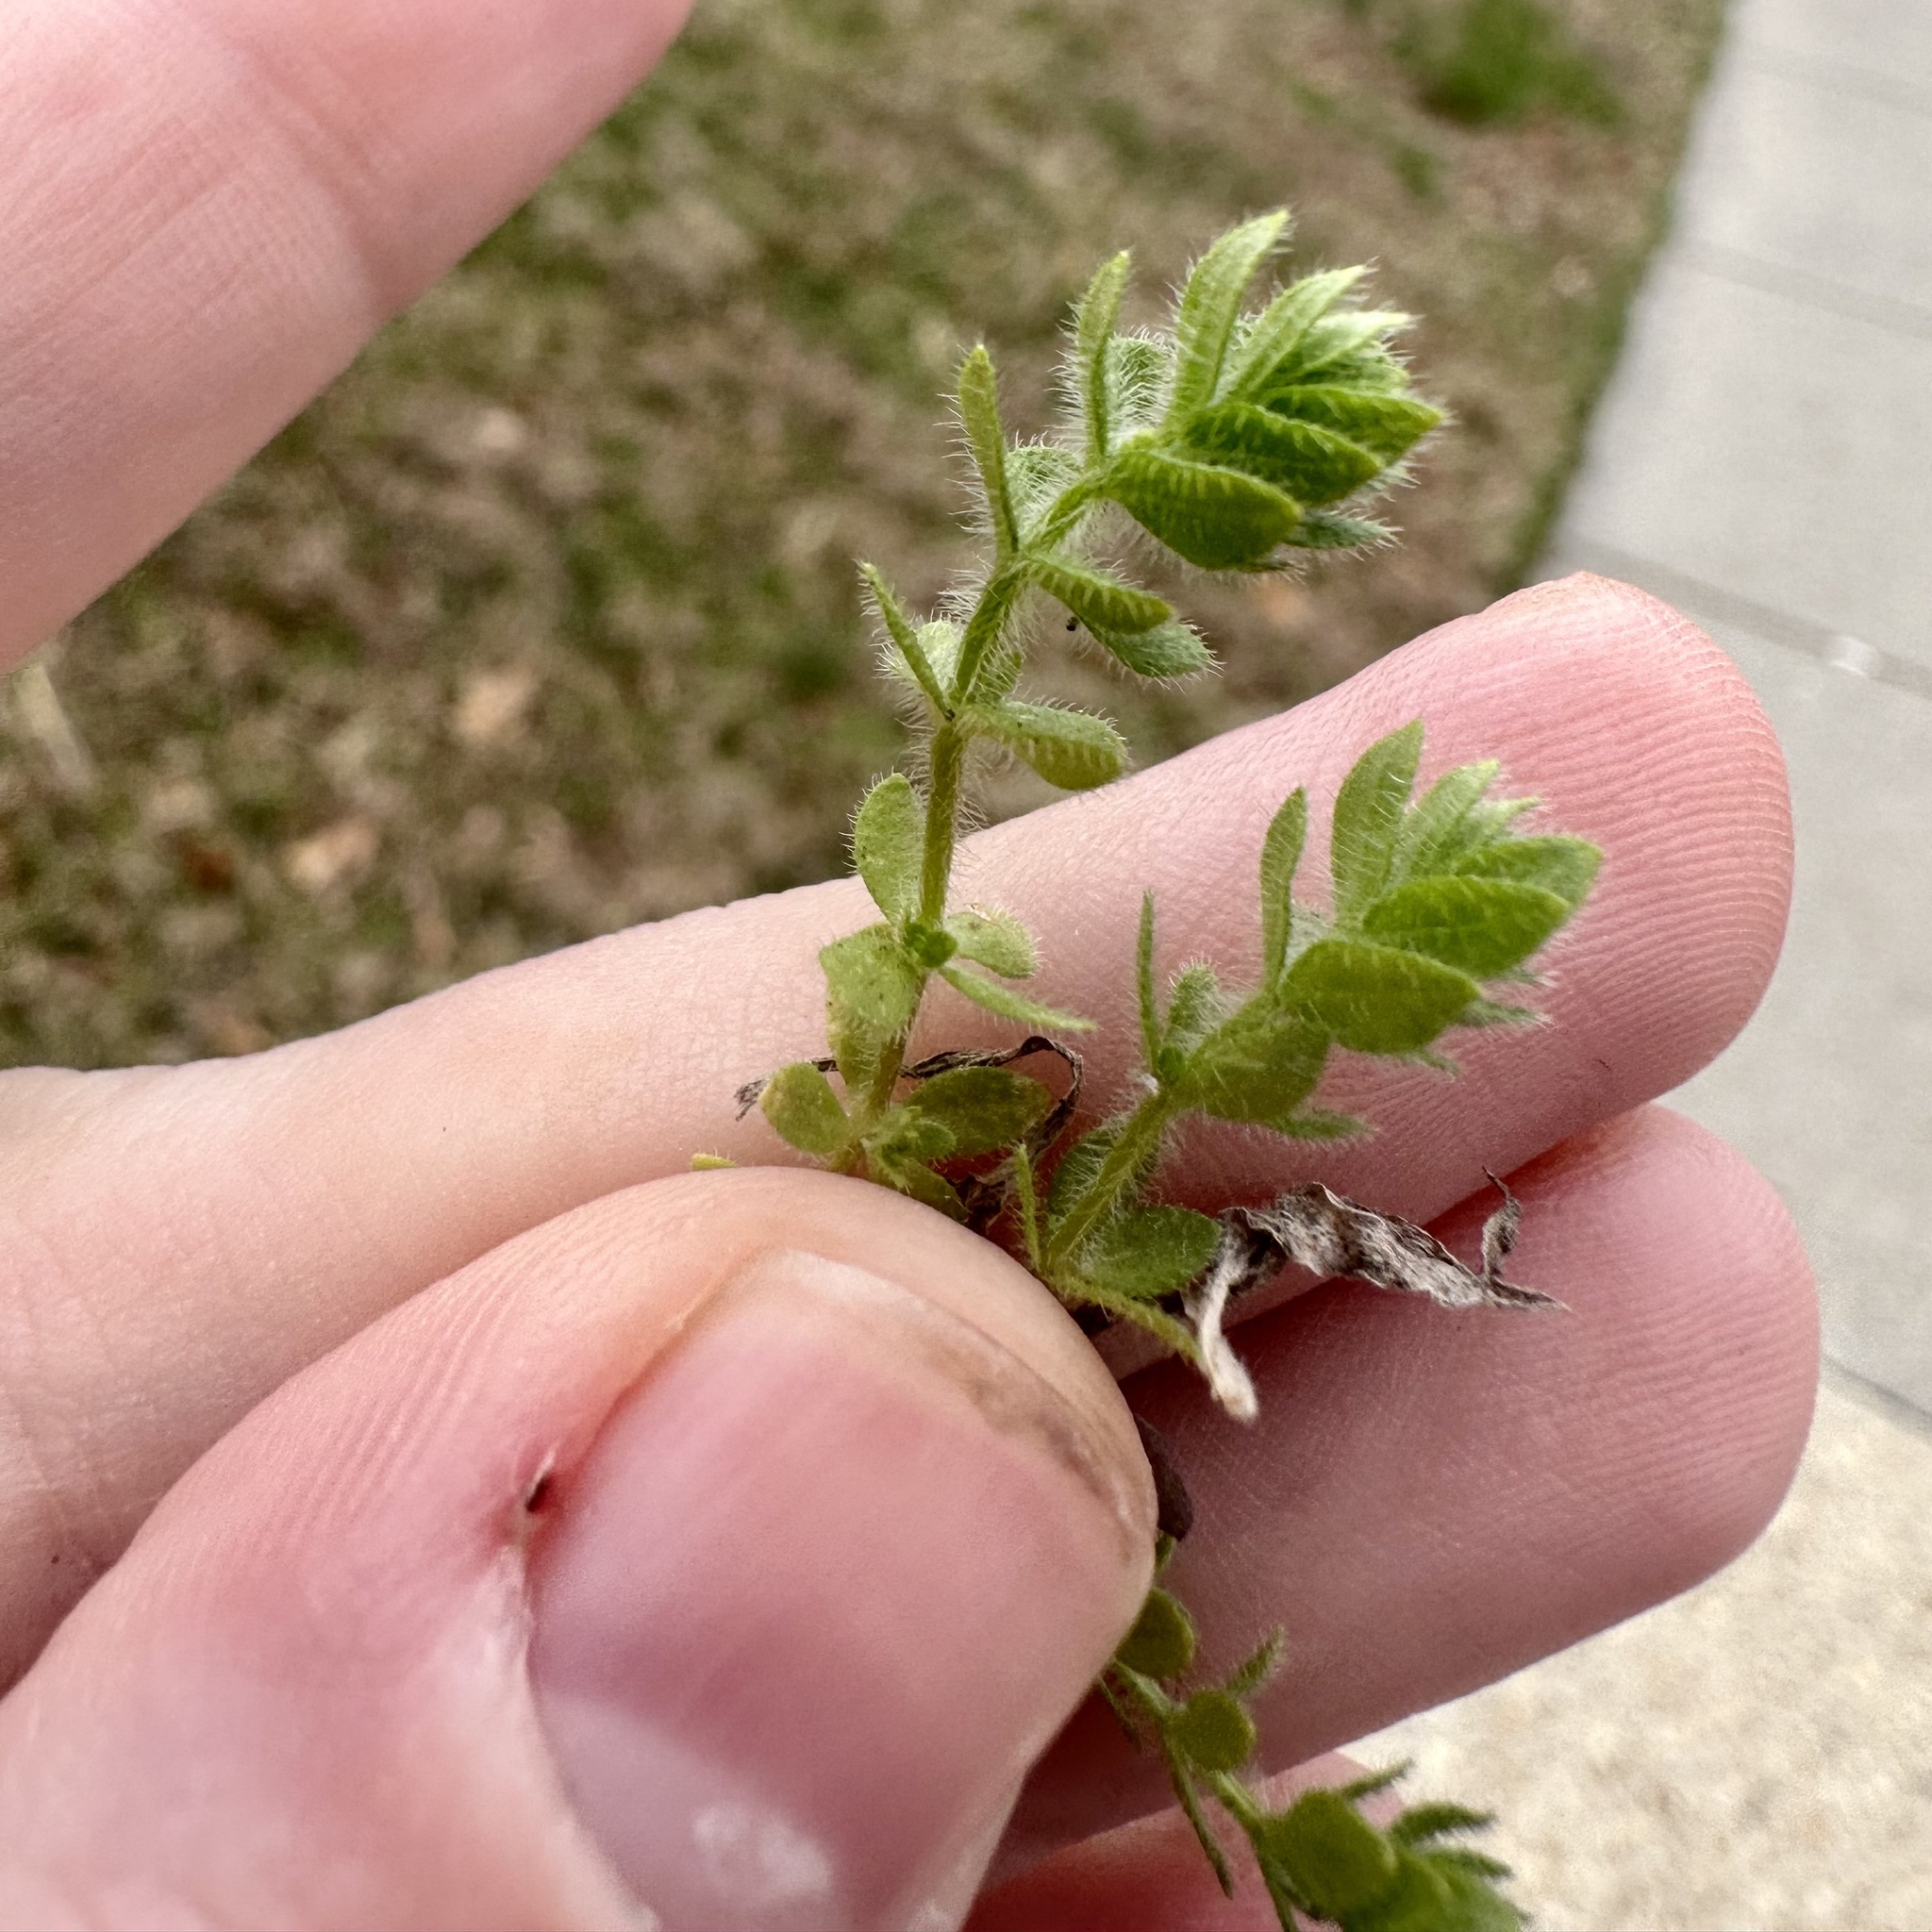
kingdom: Plantae
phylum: Tracheophyta
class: Magnoliopsida
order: Gentianales
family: Rubiaceae
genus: Cruciata
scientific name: Cruciata pedemontana
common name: Piedmont bedstraw
